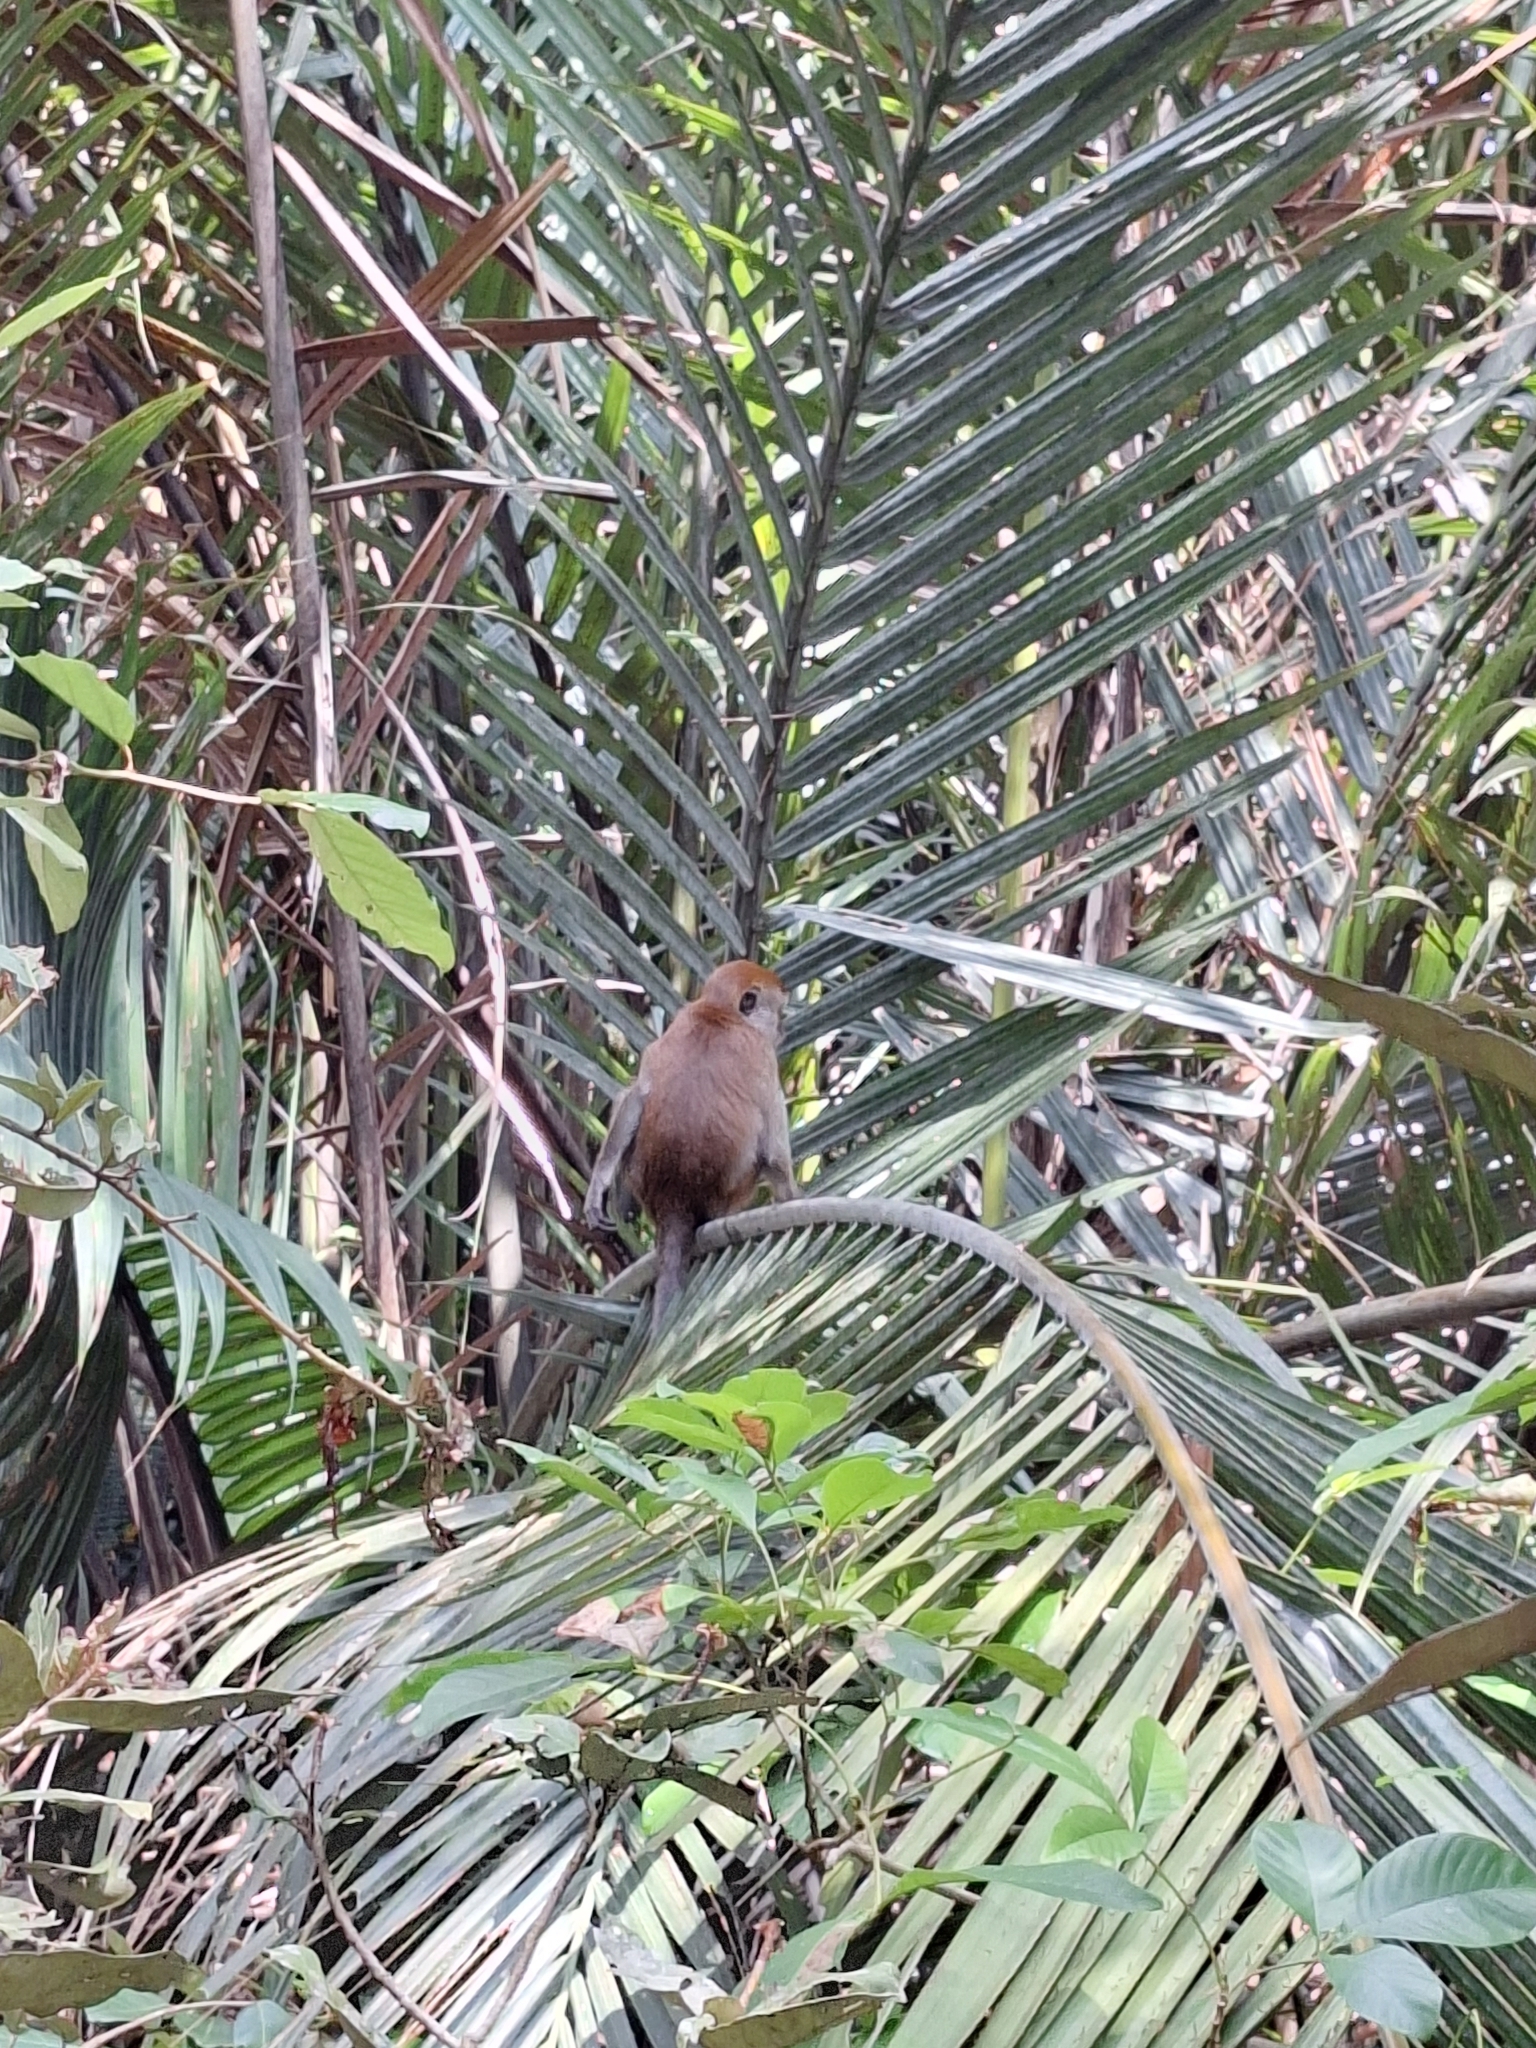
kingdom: Animalia
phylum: Chordata
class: Mammalia
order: Primates
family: Cercopithecidae
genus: Macaca
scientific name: Macaca fascicularis
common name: Crab-eating macaque
